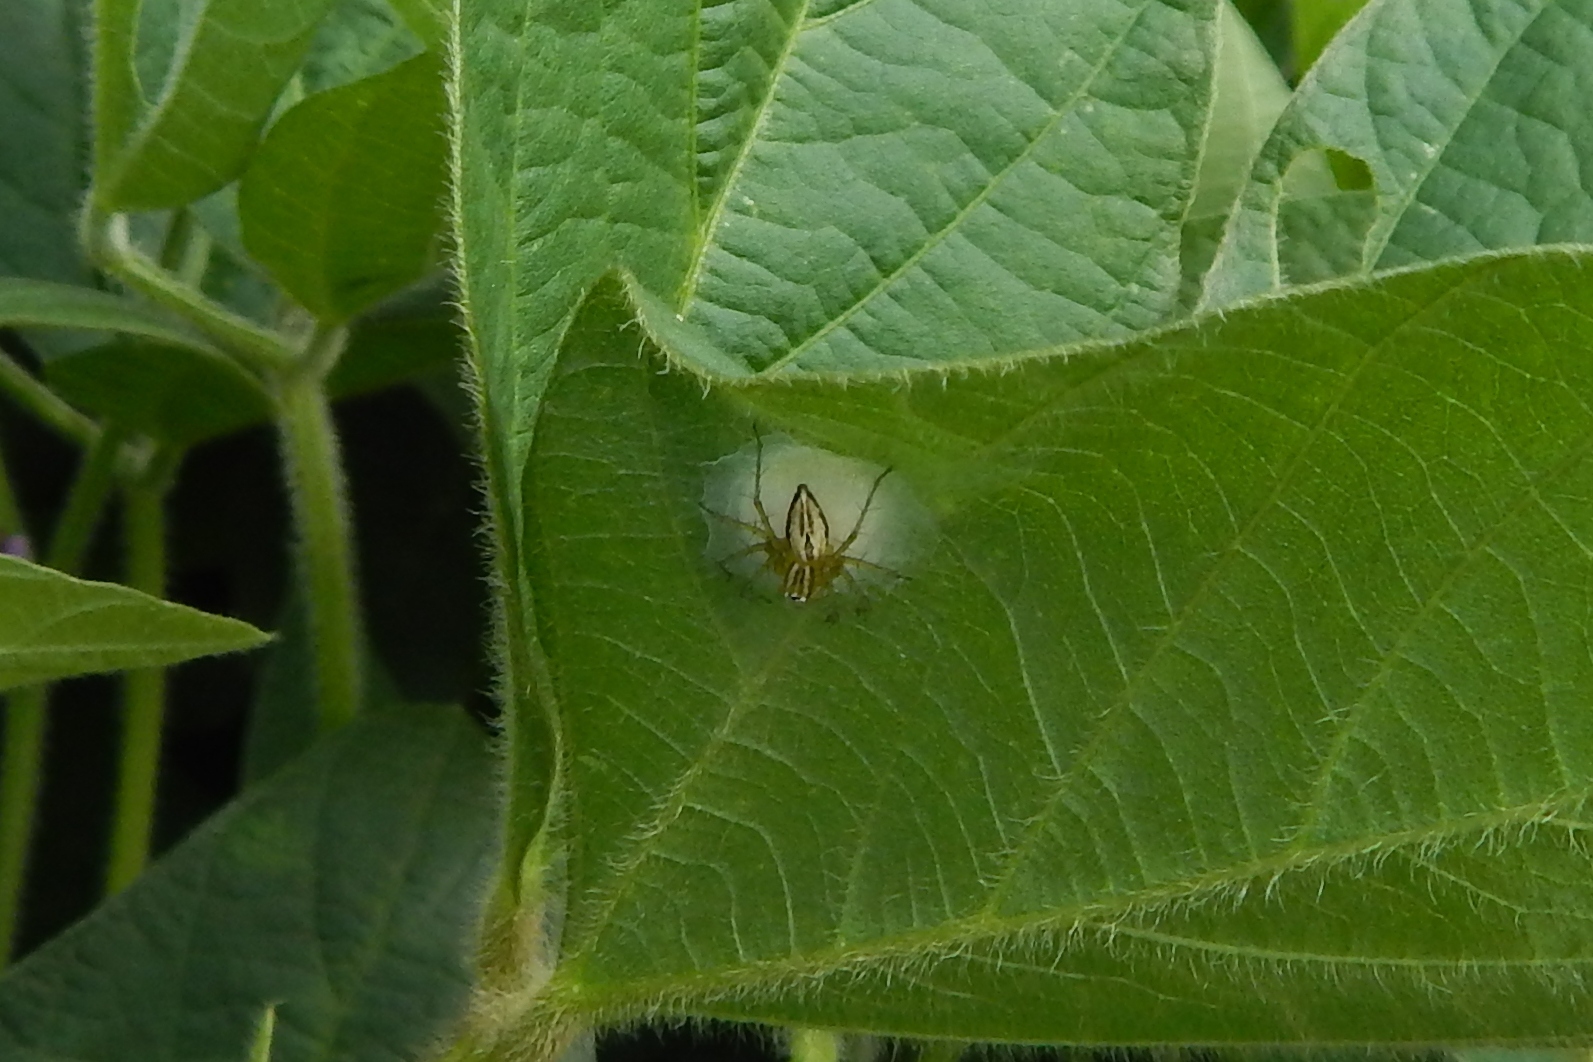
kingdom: Animalia
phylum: Arthropoda
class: Arachnida
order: Araneae
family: Oxyopidae
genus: Oxyopes
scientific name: Oxyopes salticus
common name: Lynx spiders
